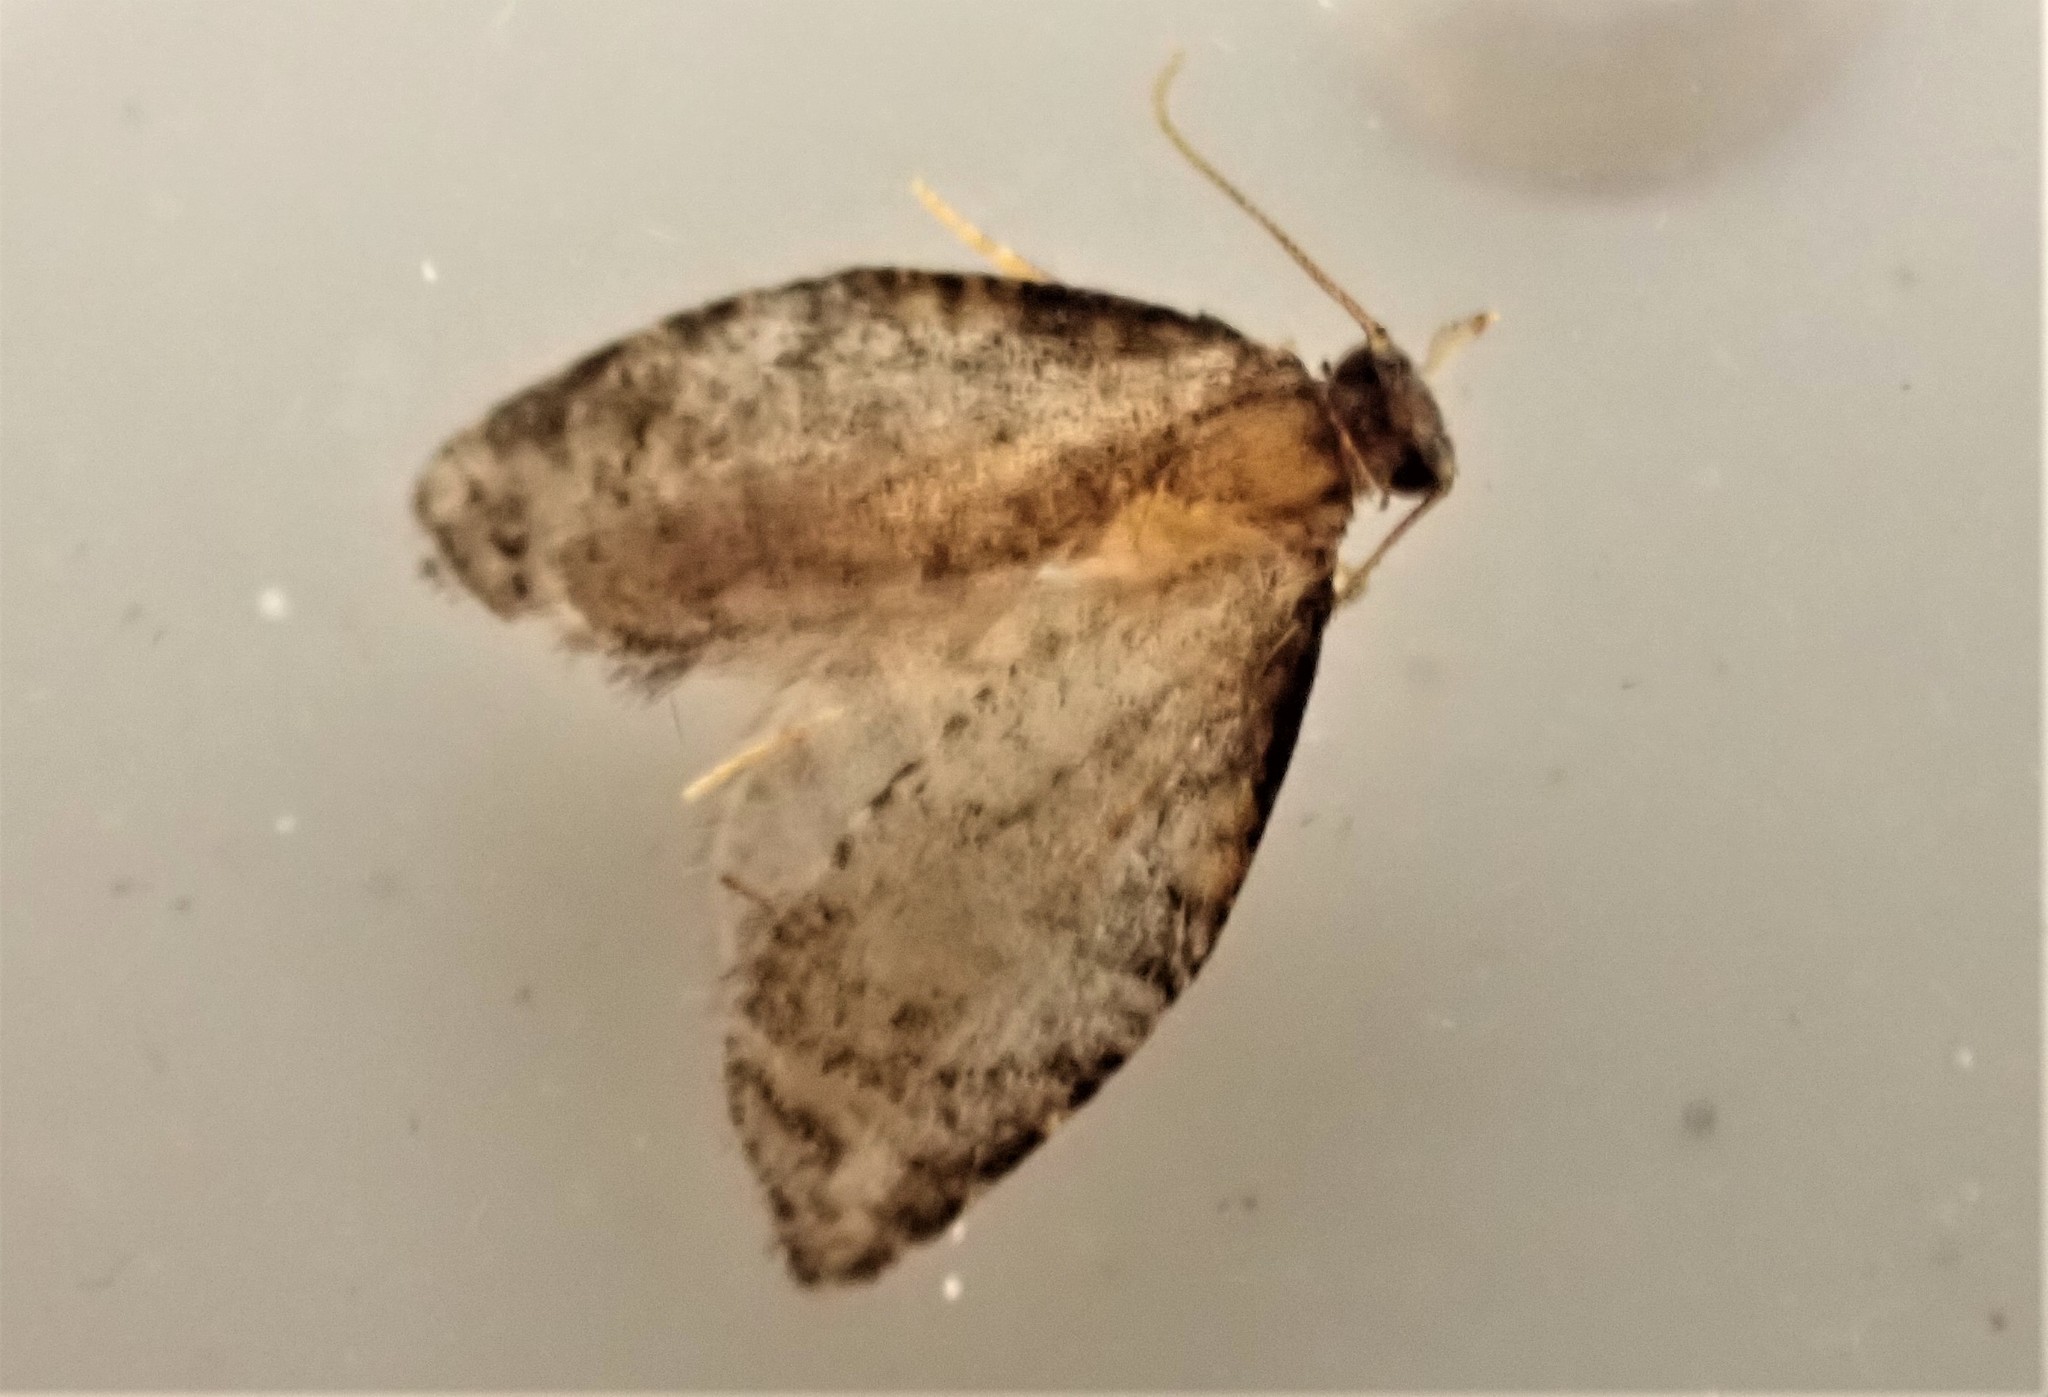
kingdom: Animalia
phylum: Arthropoda
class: Insecta
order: Lepidoptera
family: Tortricidae
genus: Capua
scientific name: Capua intractana
